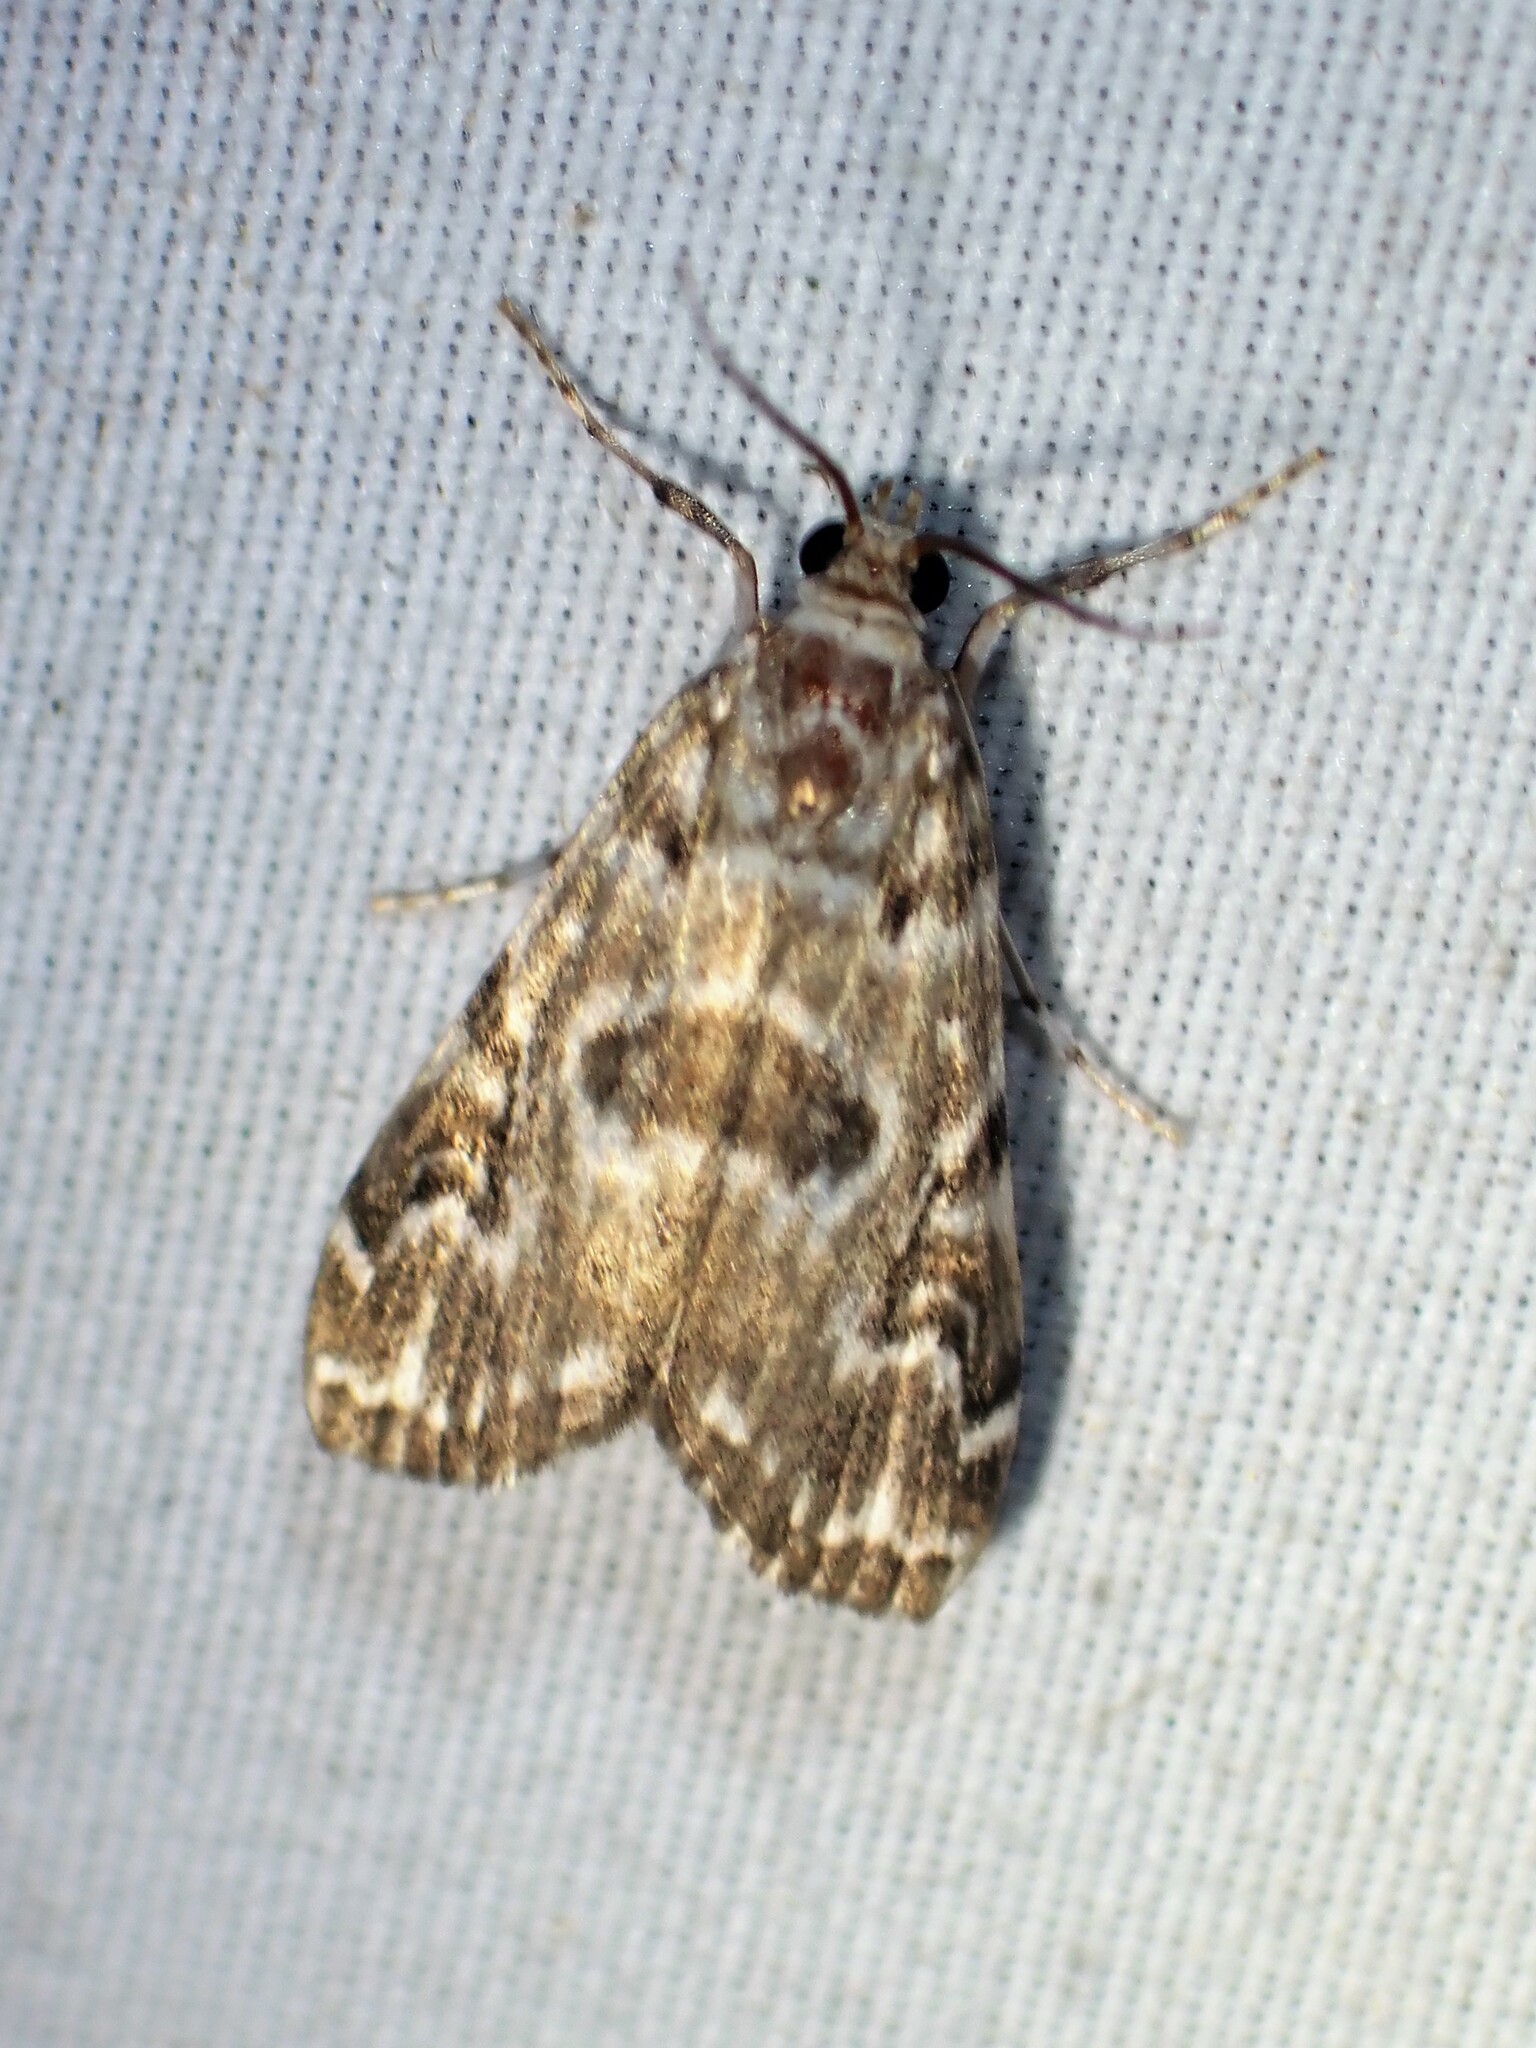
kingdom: Animalia
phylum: Arthropoda
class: Insecta
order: Lepidoptera
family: Crambidae
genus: Elophila
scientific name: Elophila gyralis
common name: Waterlily borer moth
